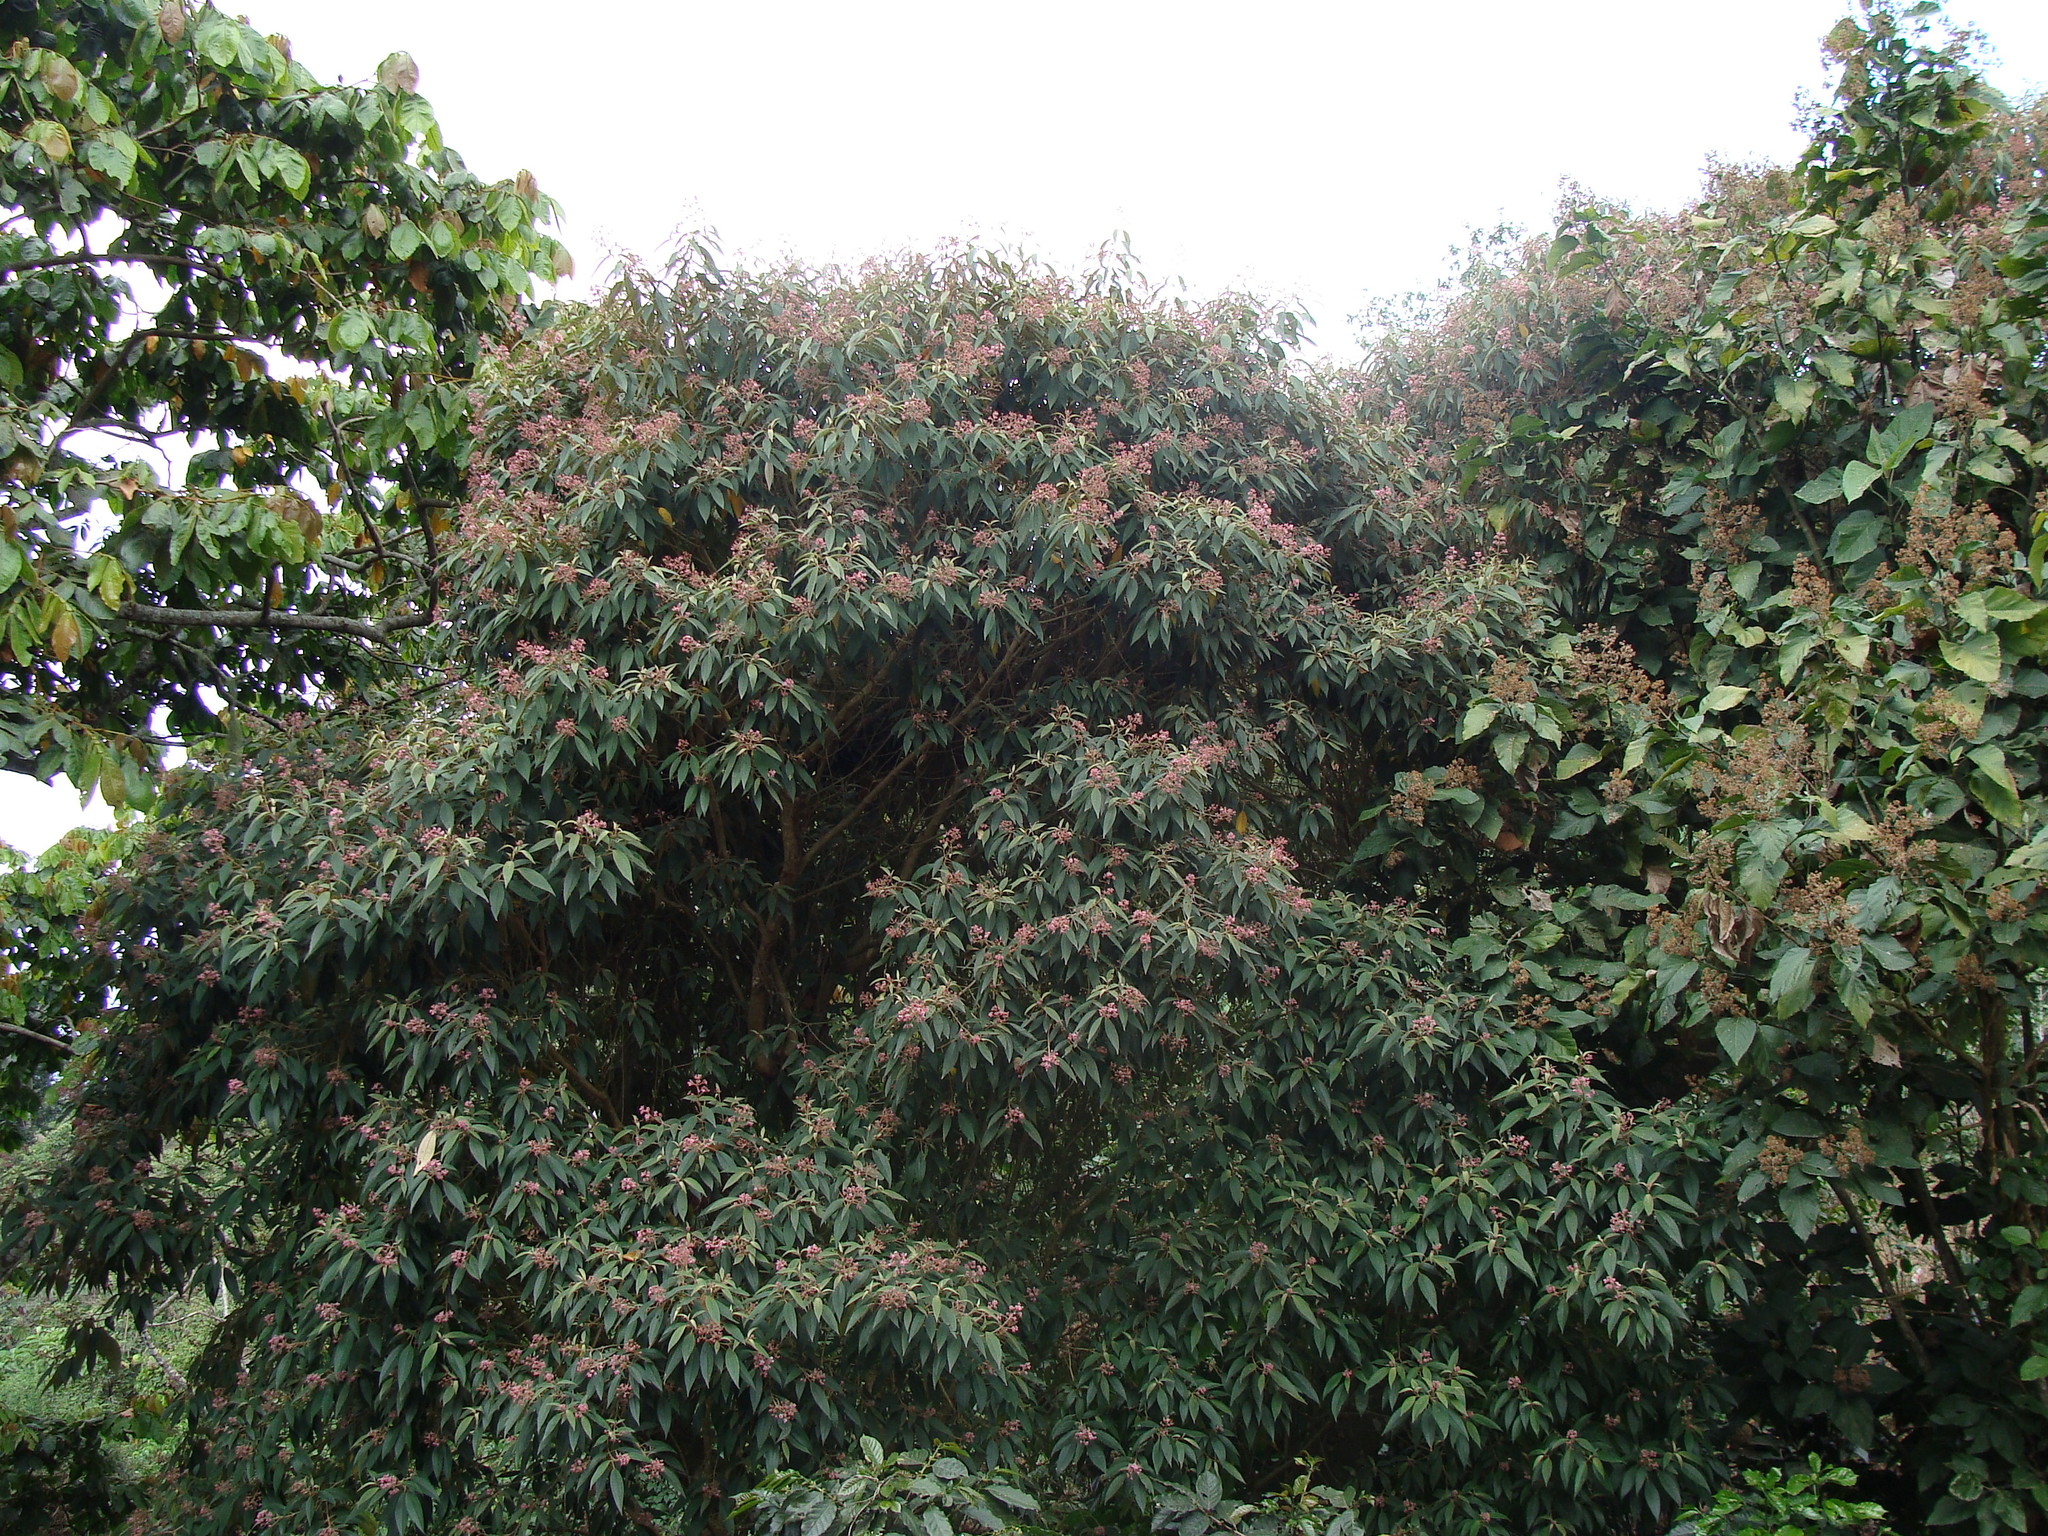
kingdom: Plantae
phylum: Tracheophyta
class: Magnoliopsida
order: Myrtales
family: Melastomataceae
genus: Miconia
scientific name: Miconia xalapensis
